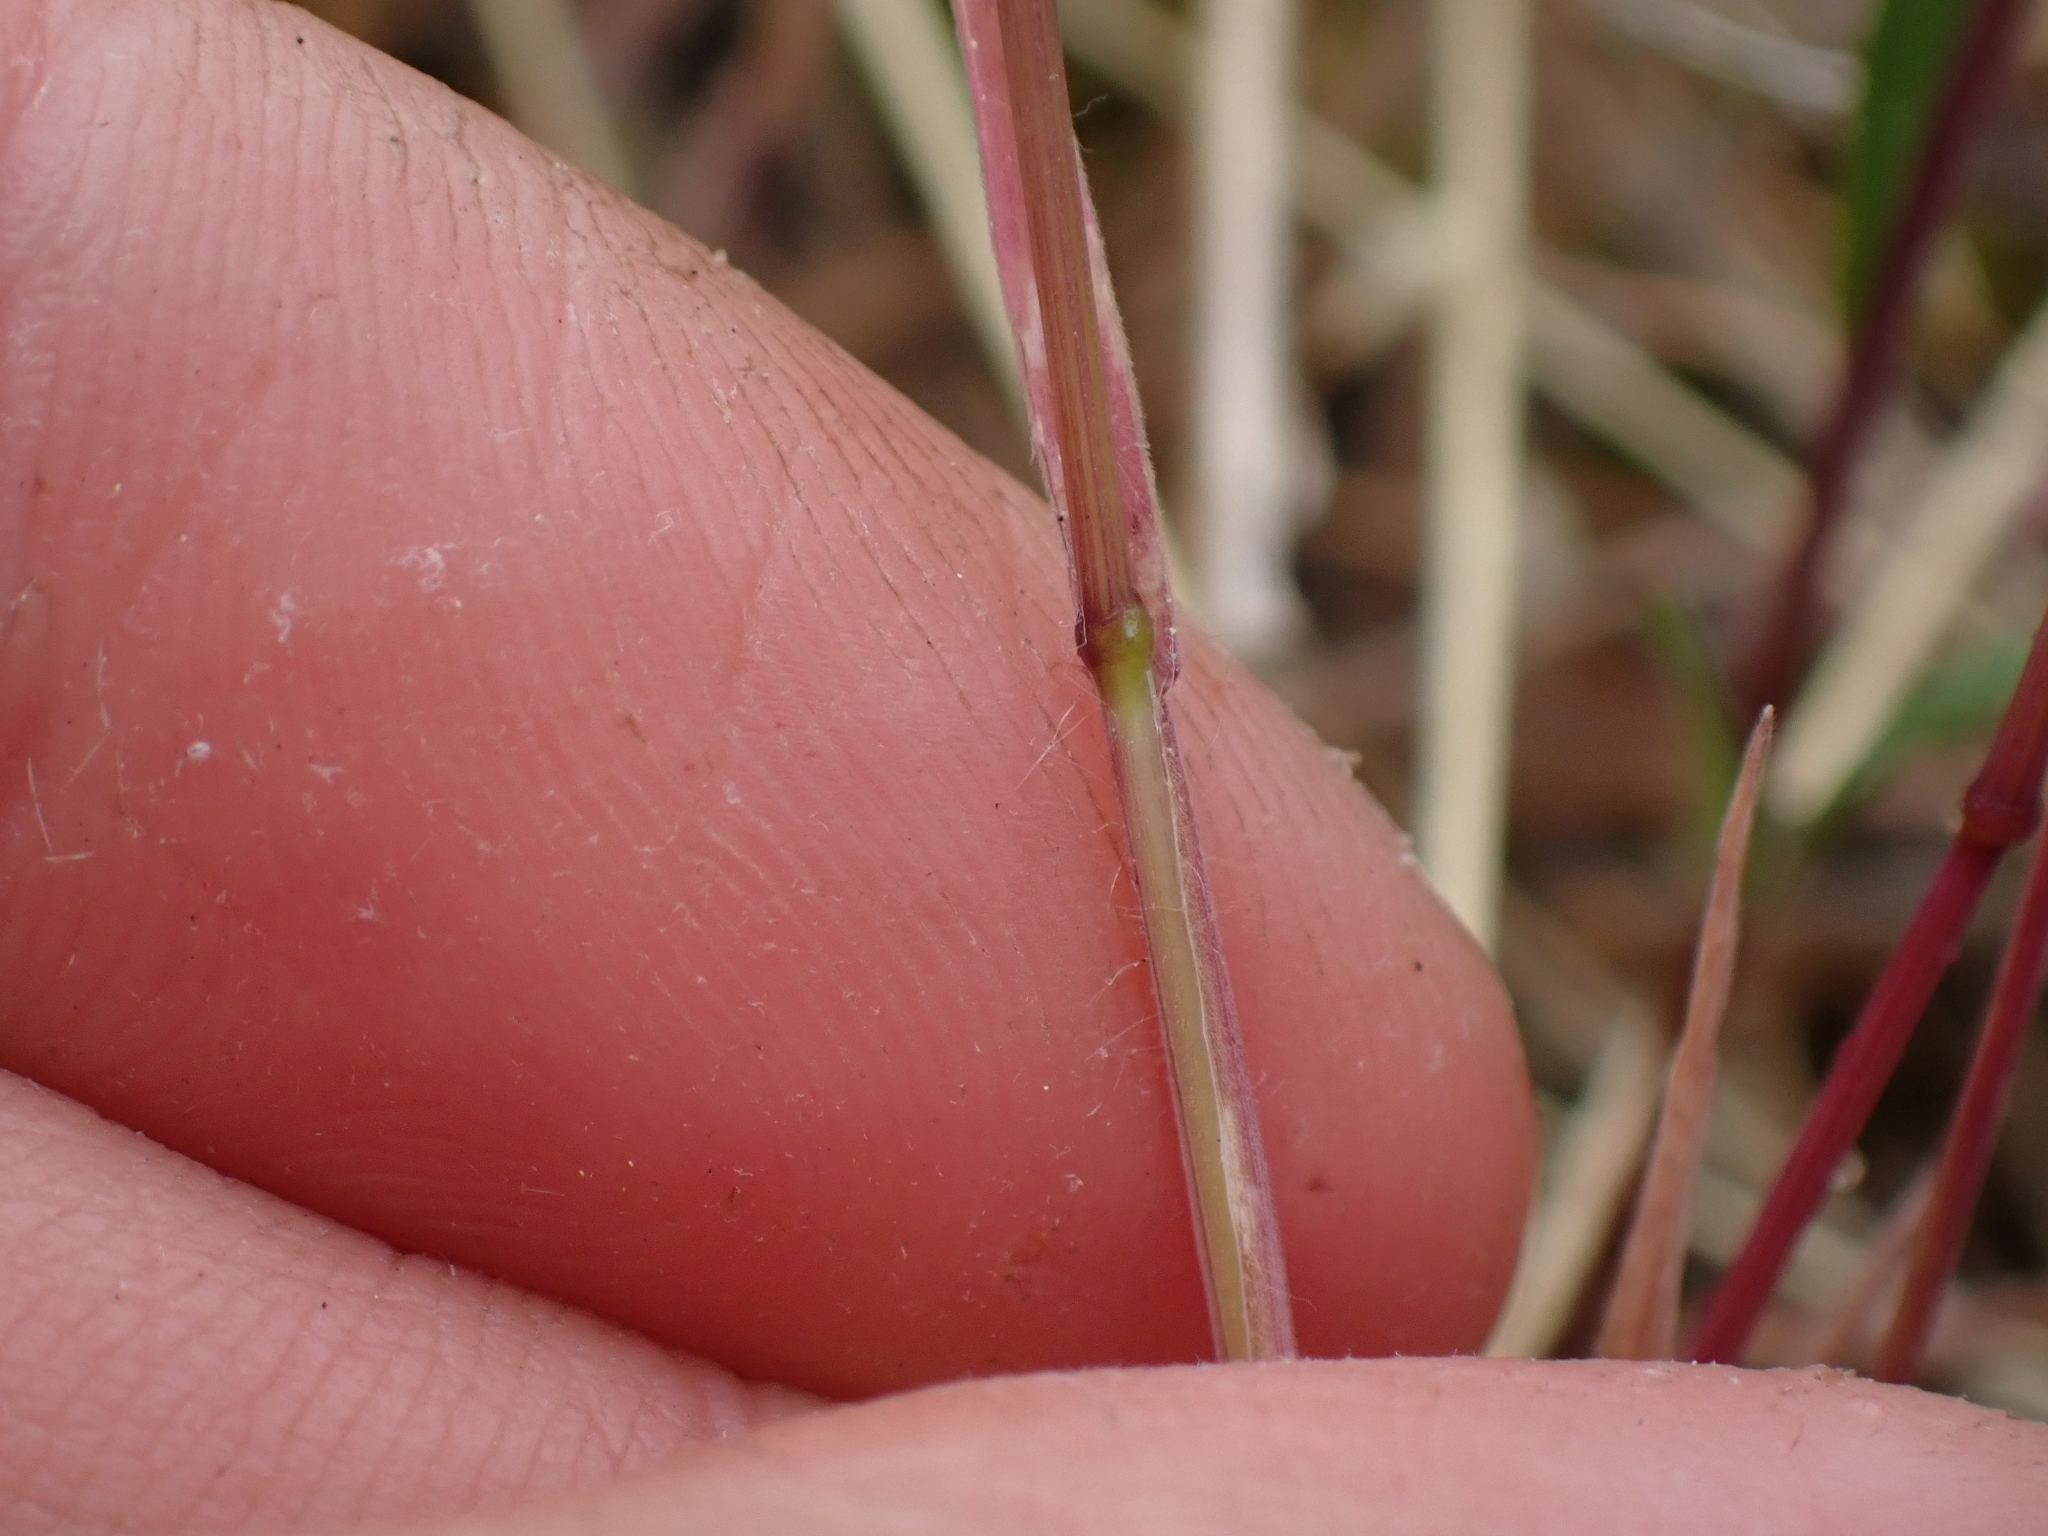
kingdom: Plantae
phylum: Tracheophyta
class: Liliopsida
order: Poales
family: Poaceae
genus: Bromus
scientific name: Bromus tectorum
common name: Cheatgrass
